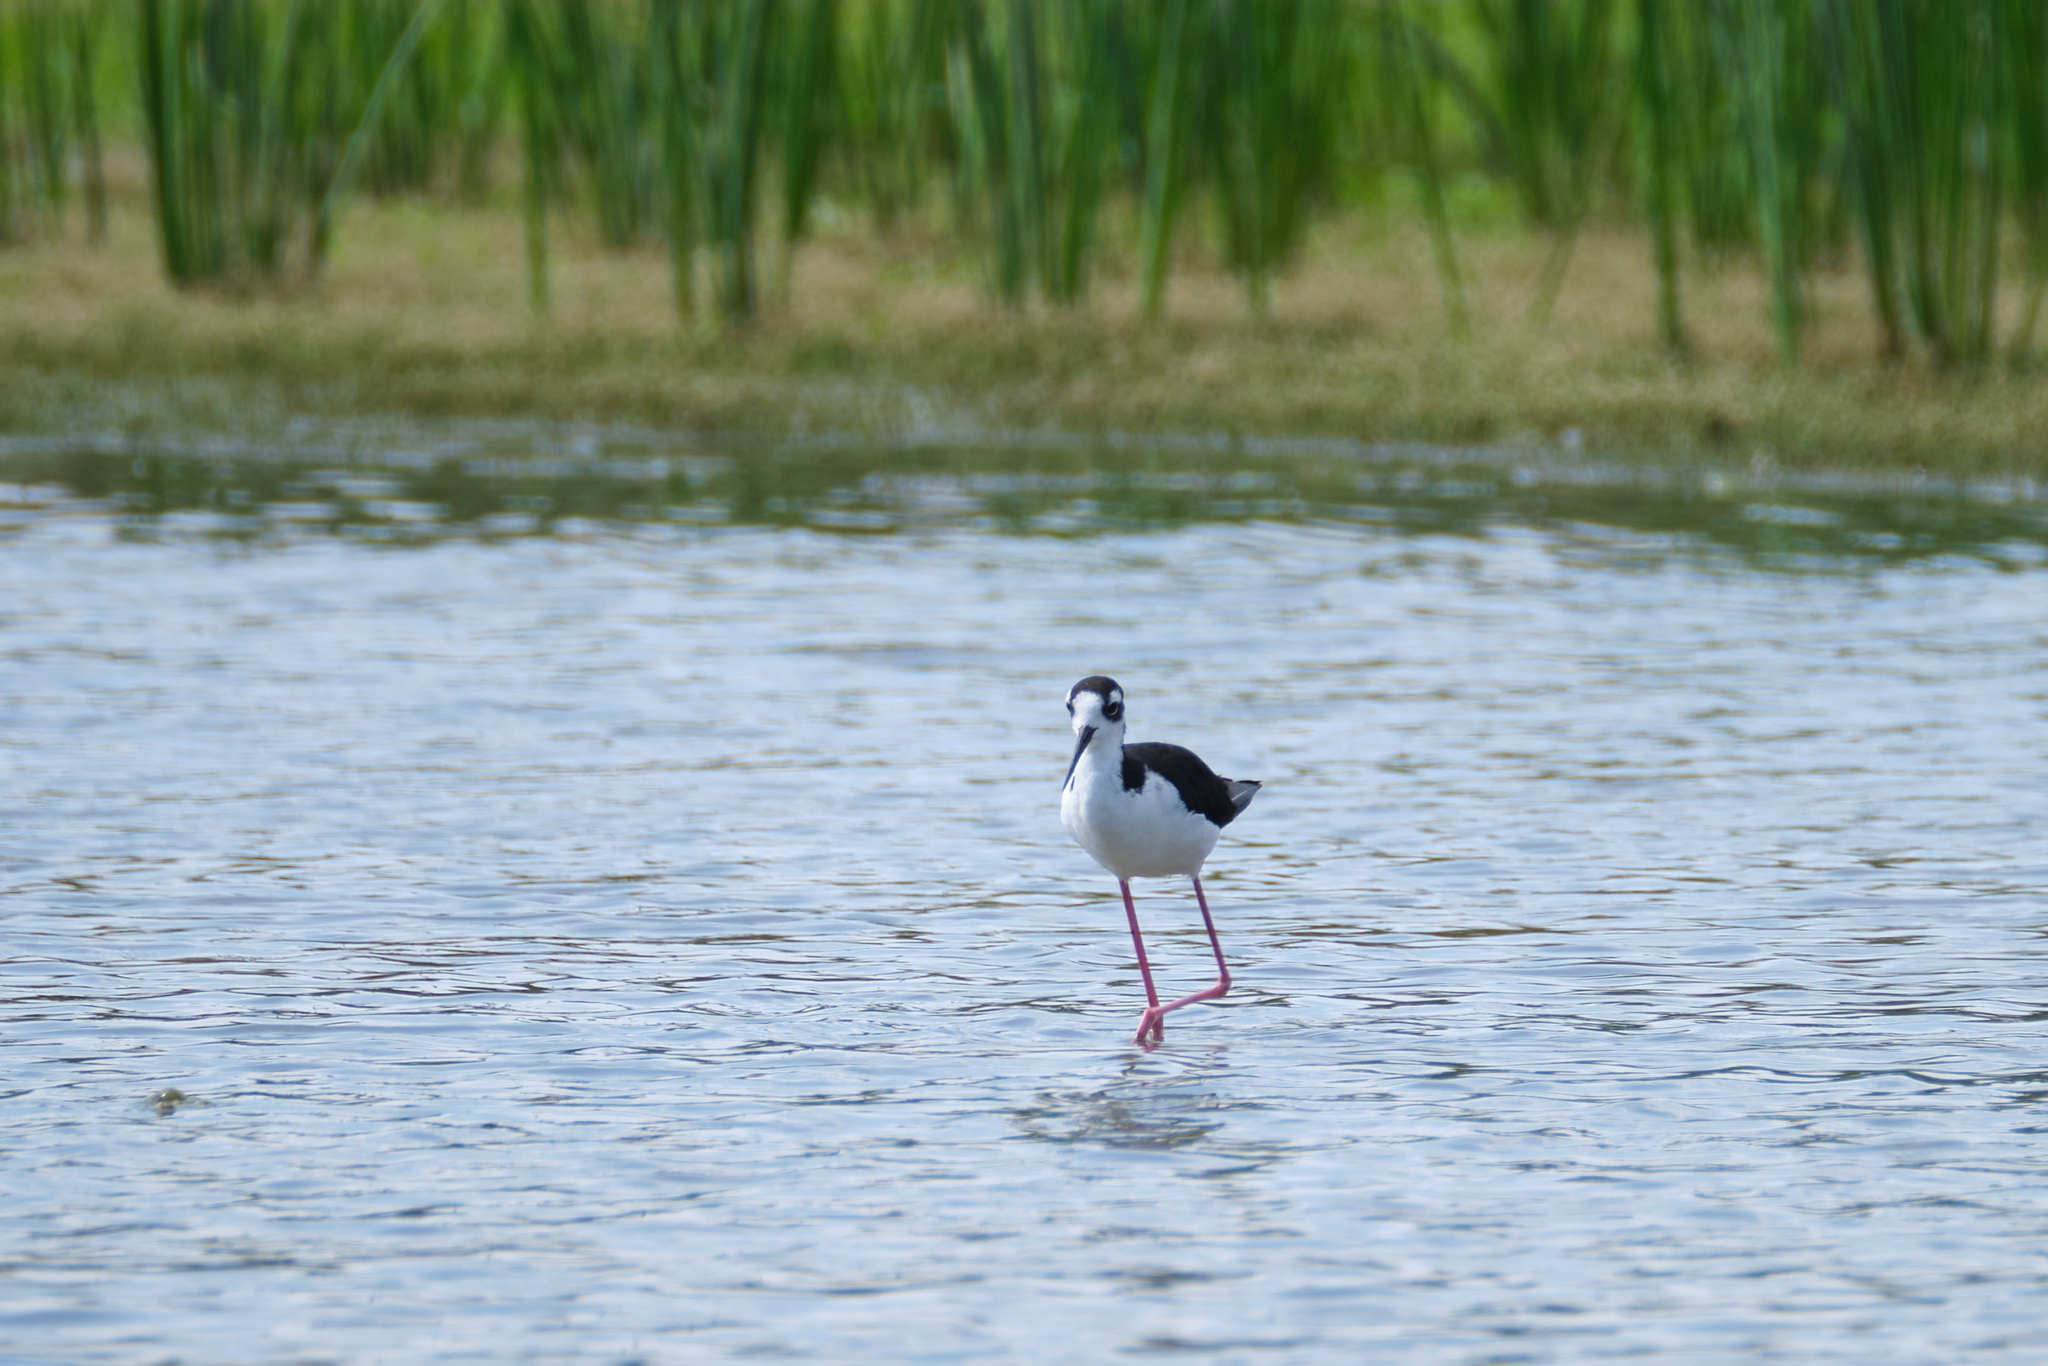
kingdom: Animalia
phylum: Chordata
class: Aves
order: Charadriiformes
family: Recurvirostridae
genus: Himantopus
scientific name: Himantopus mexicanus
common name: Black-necked stilt
